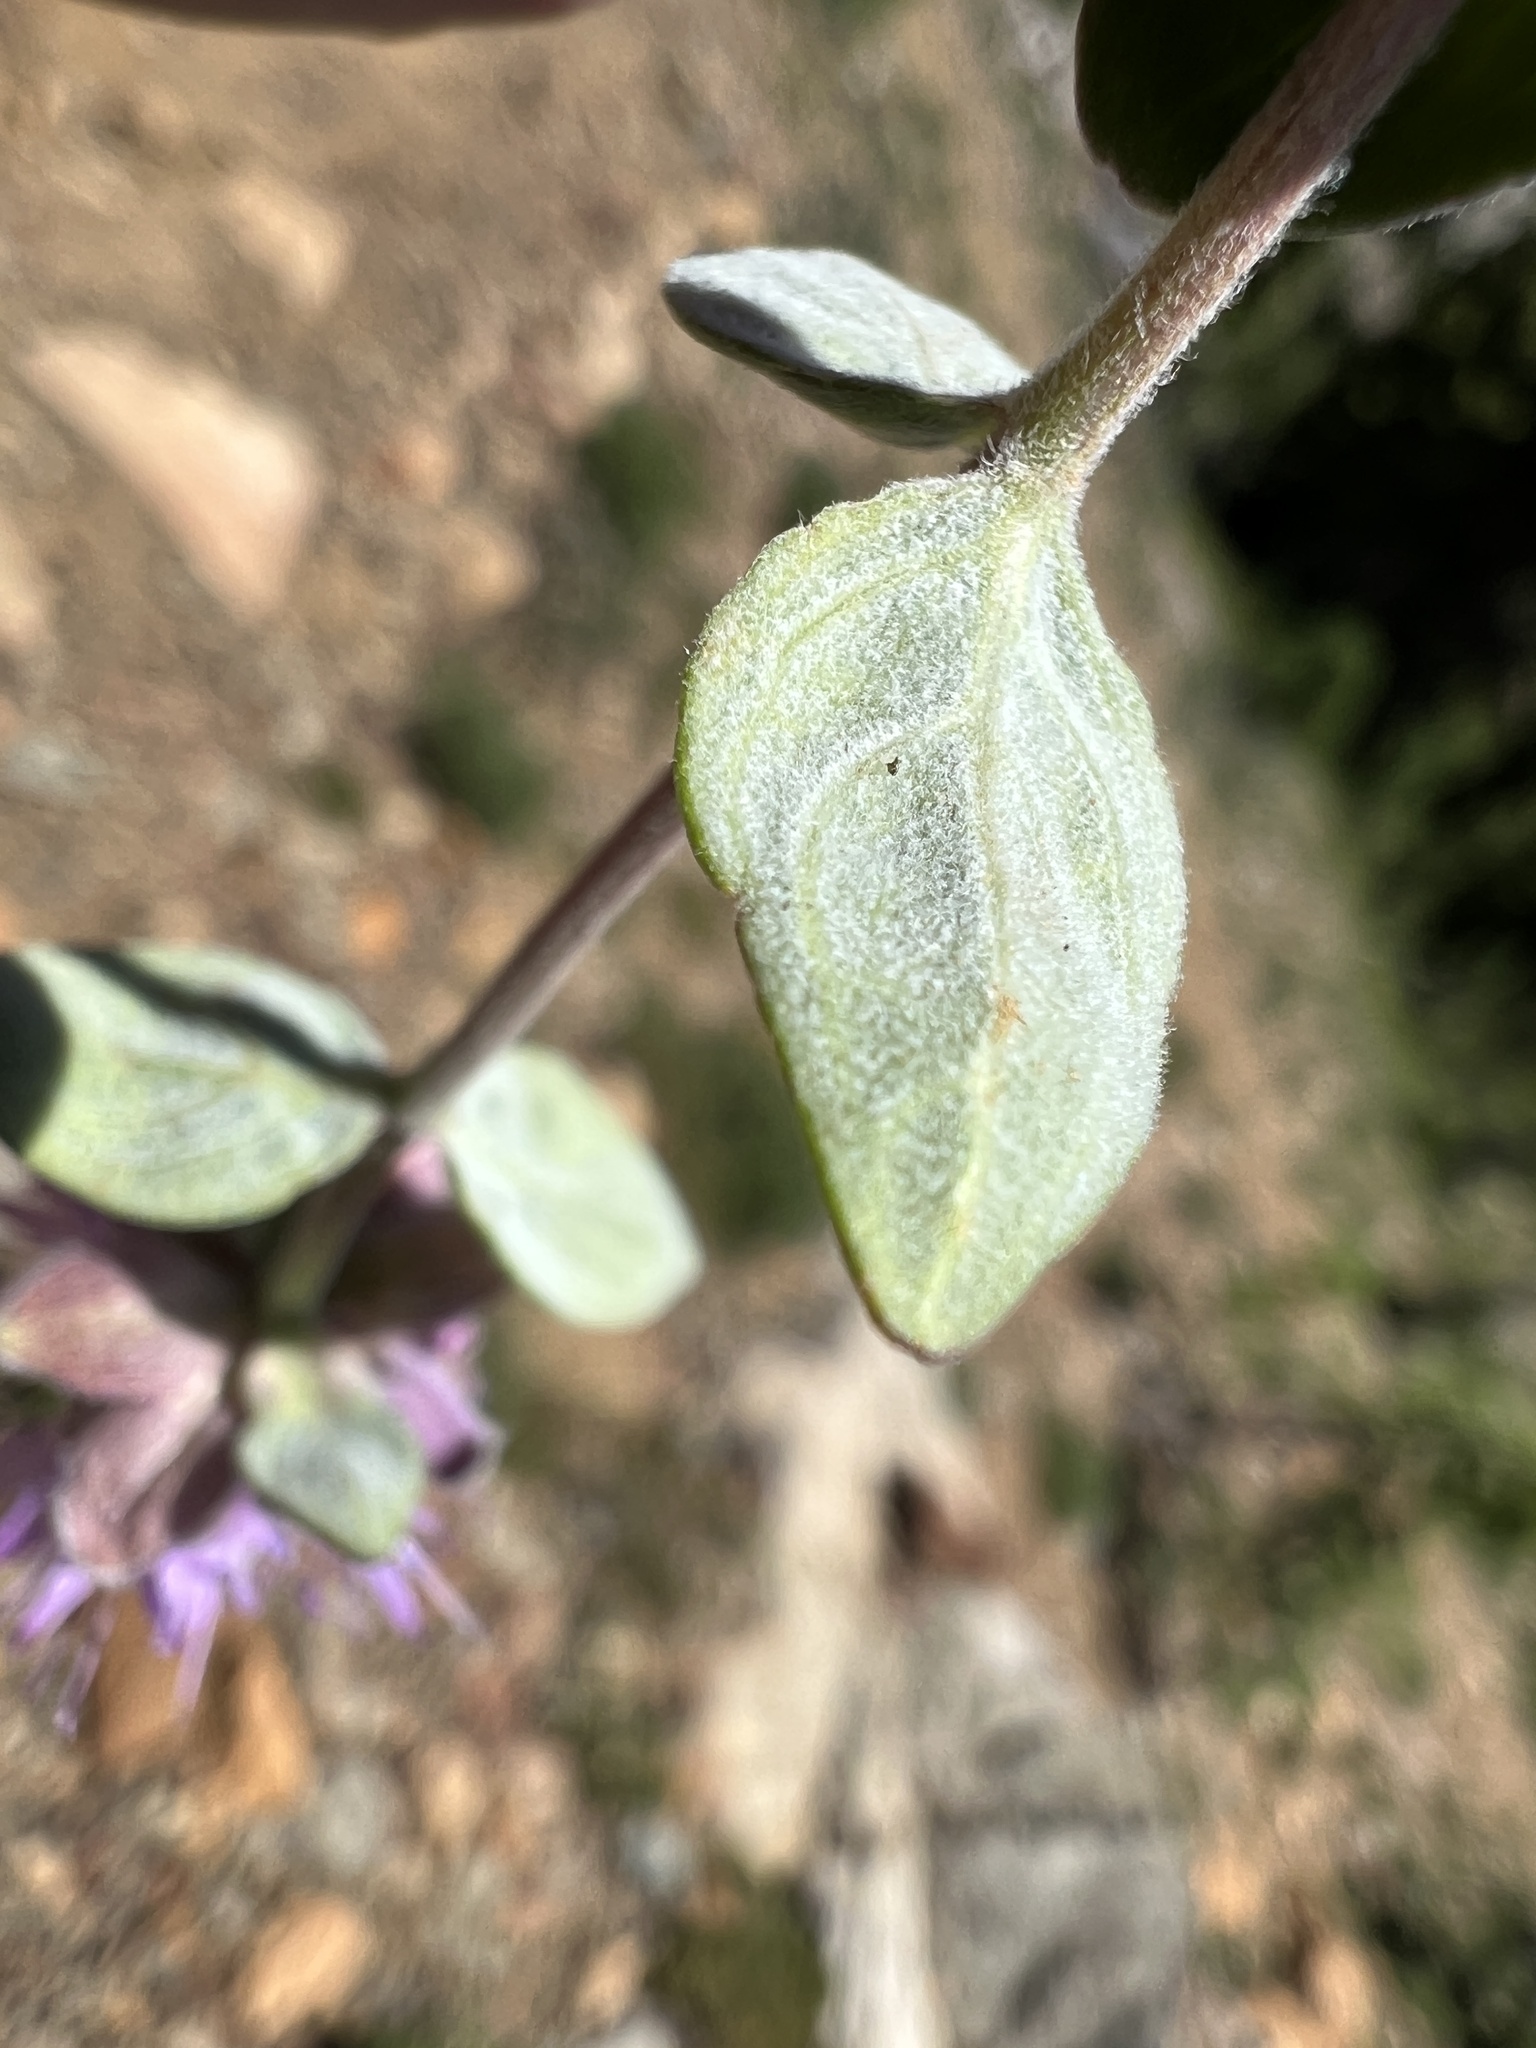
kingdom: Plantae
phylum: Tracheophyta
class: Magnoliopsida
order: Lamiales
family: Lamiaceae
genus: Monardella
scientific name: Monardella odoratissima
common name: Pacific monardella
